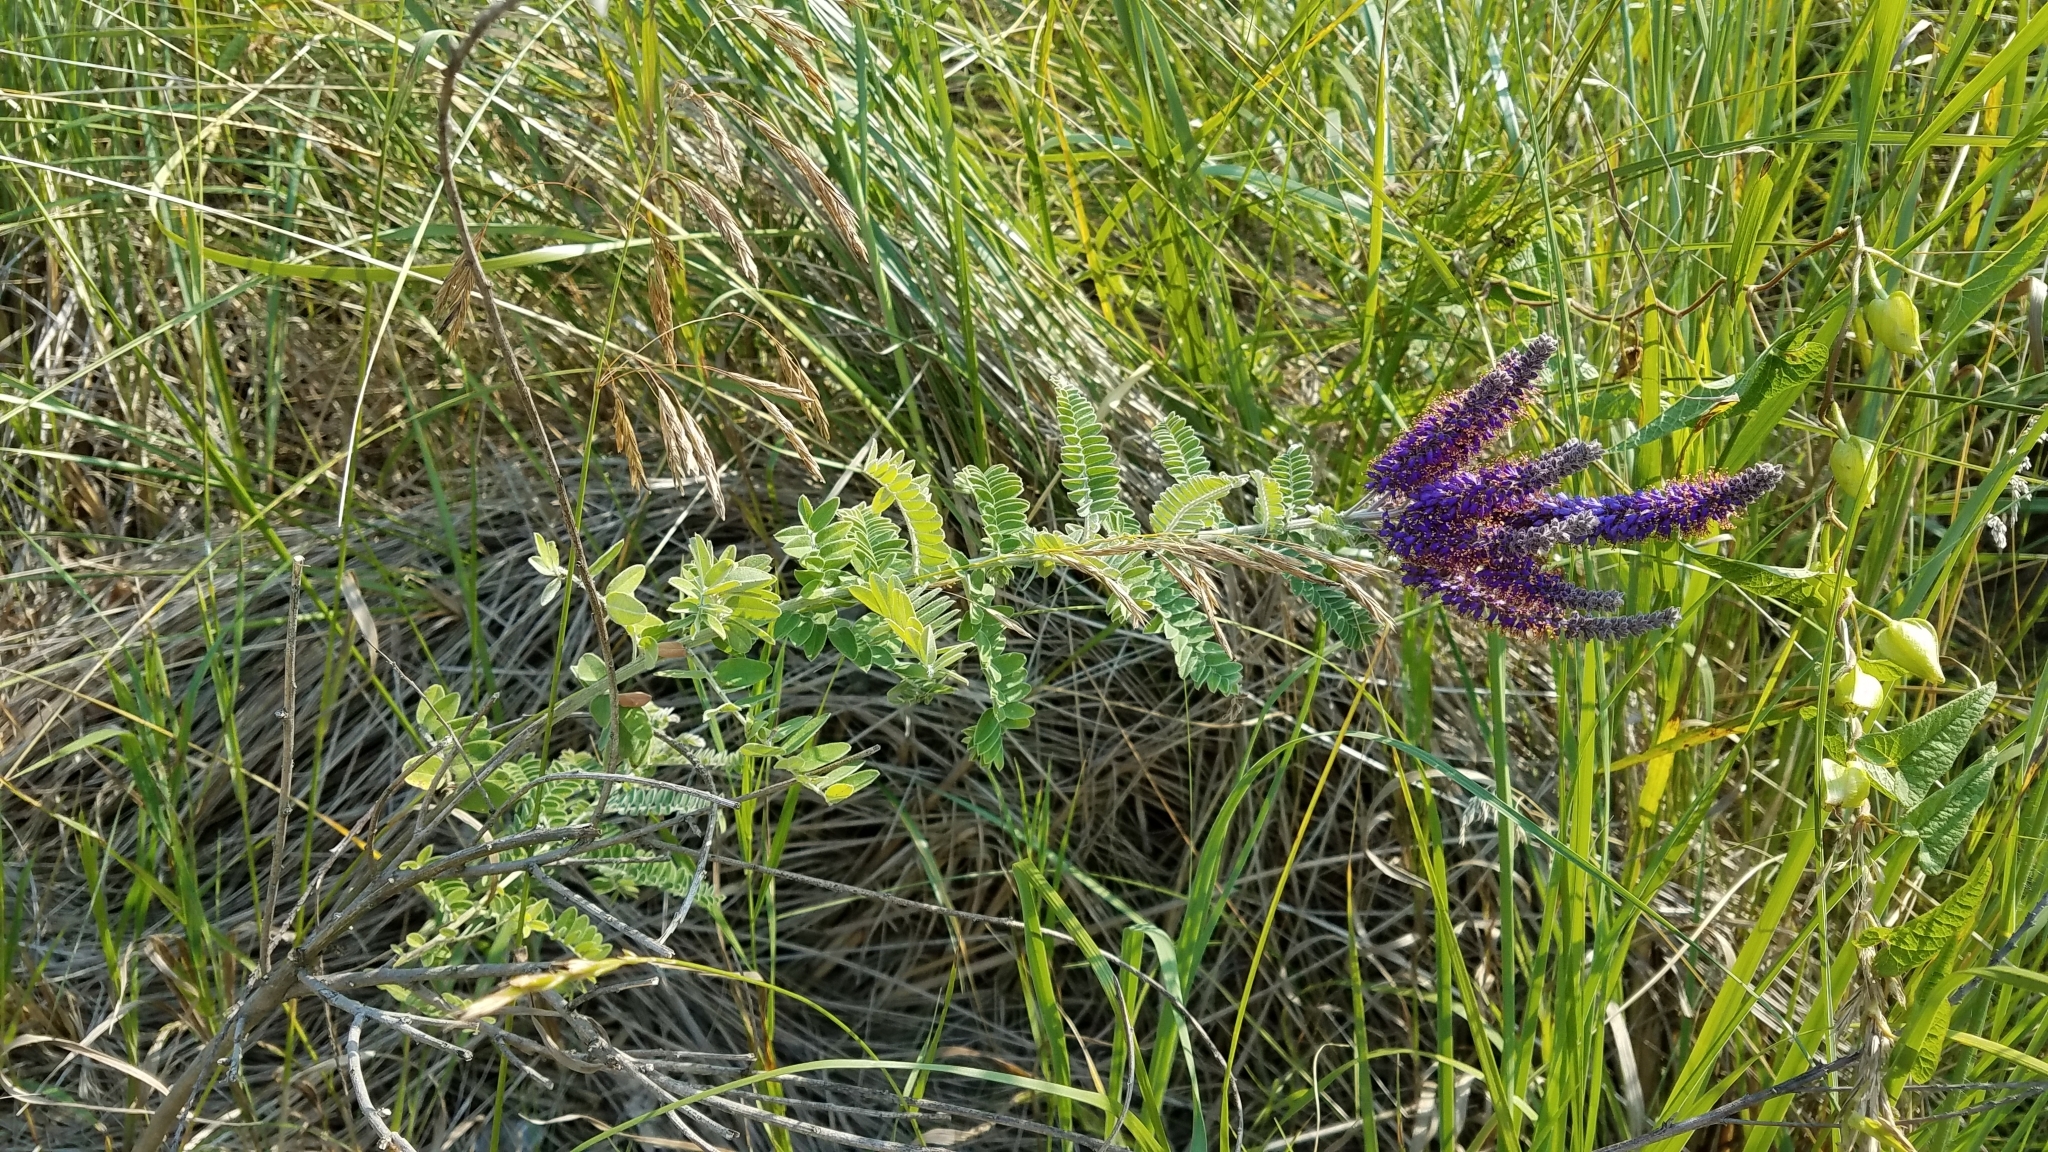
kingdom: Plantae
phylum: Tracheophyta
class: Magnoliopsida
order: Fabales
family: Fabaceae
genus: Amorpha
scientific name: Amorpha canescens
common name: Leadplant
